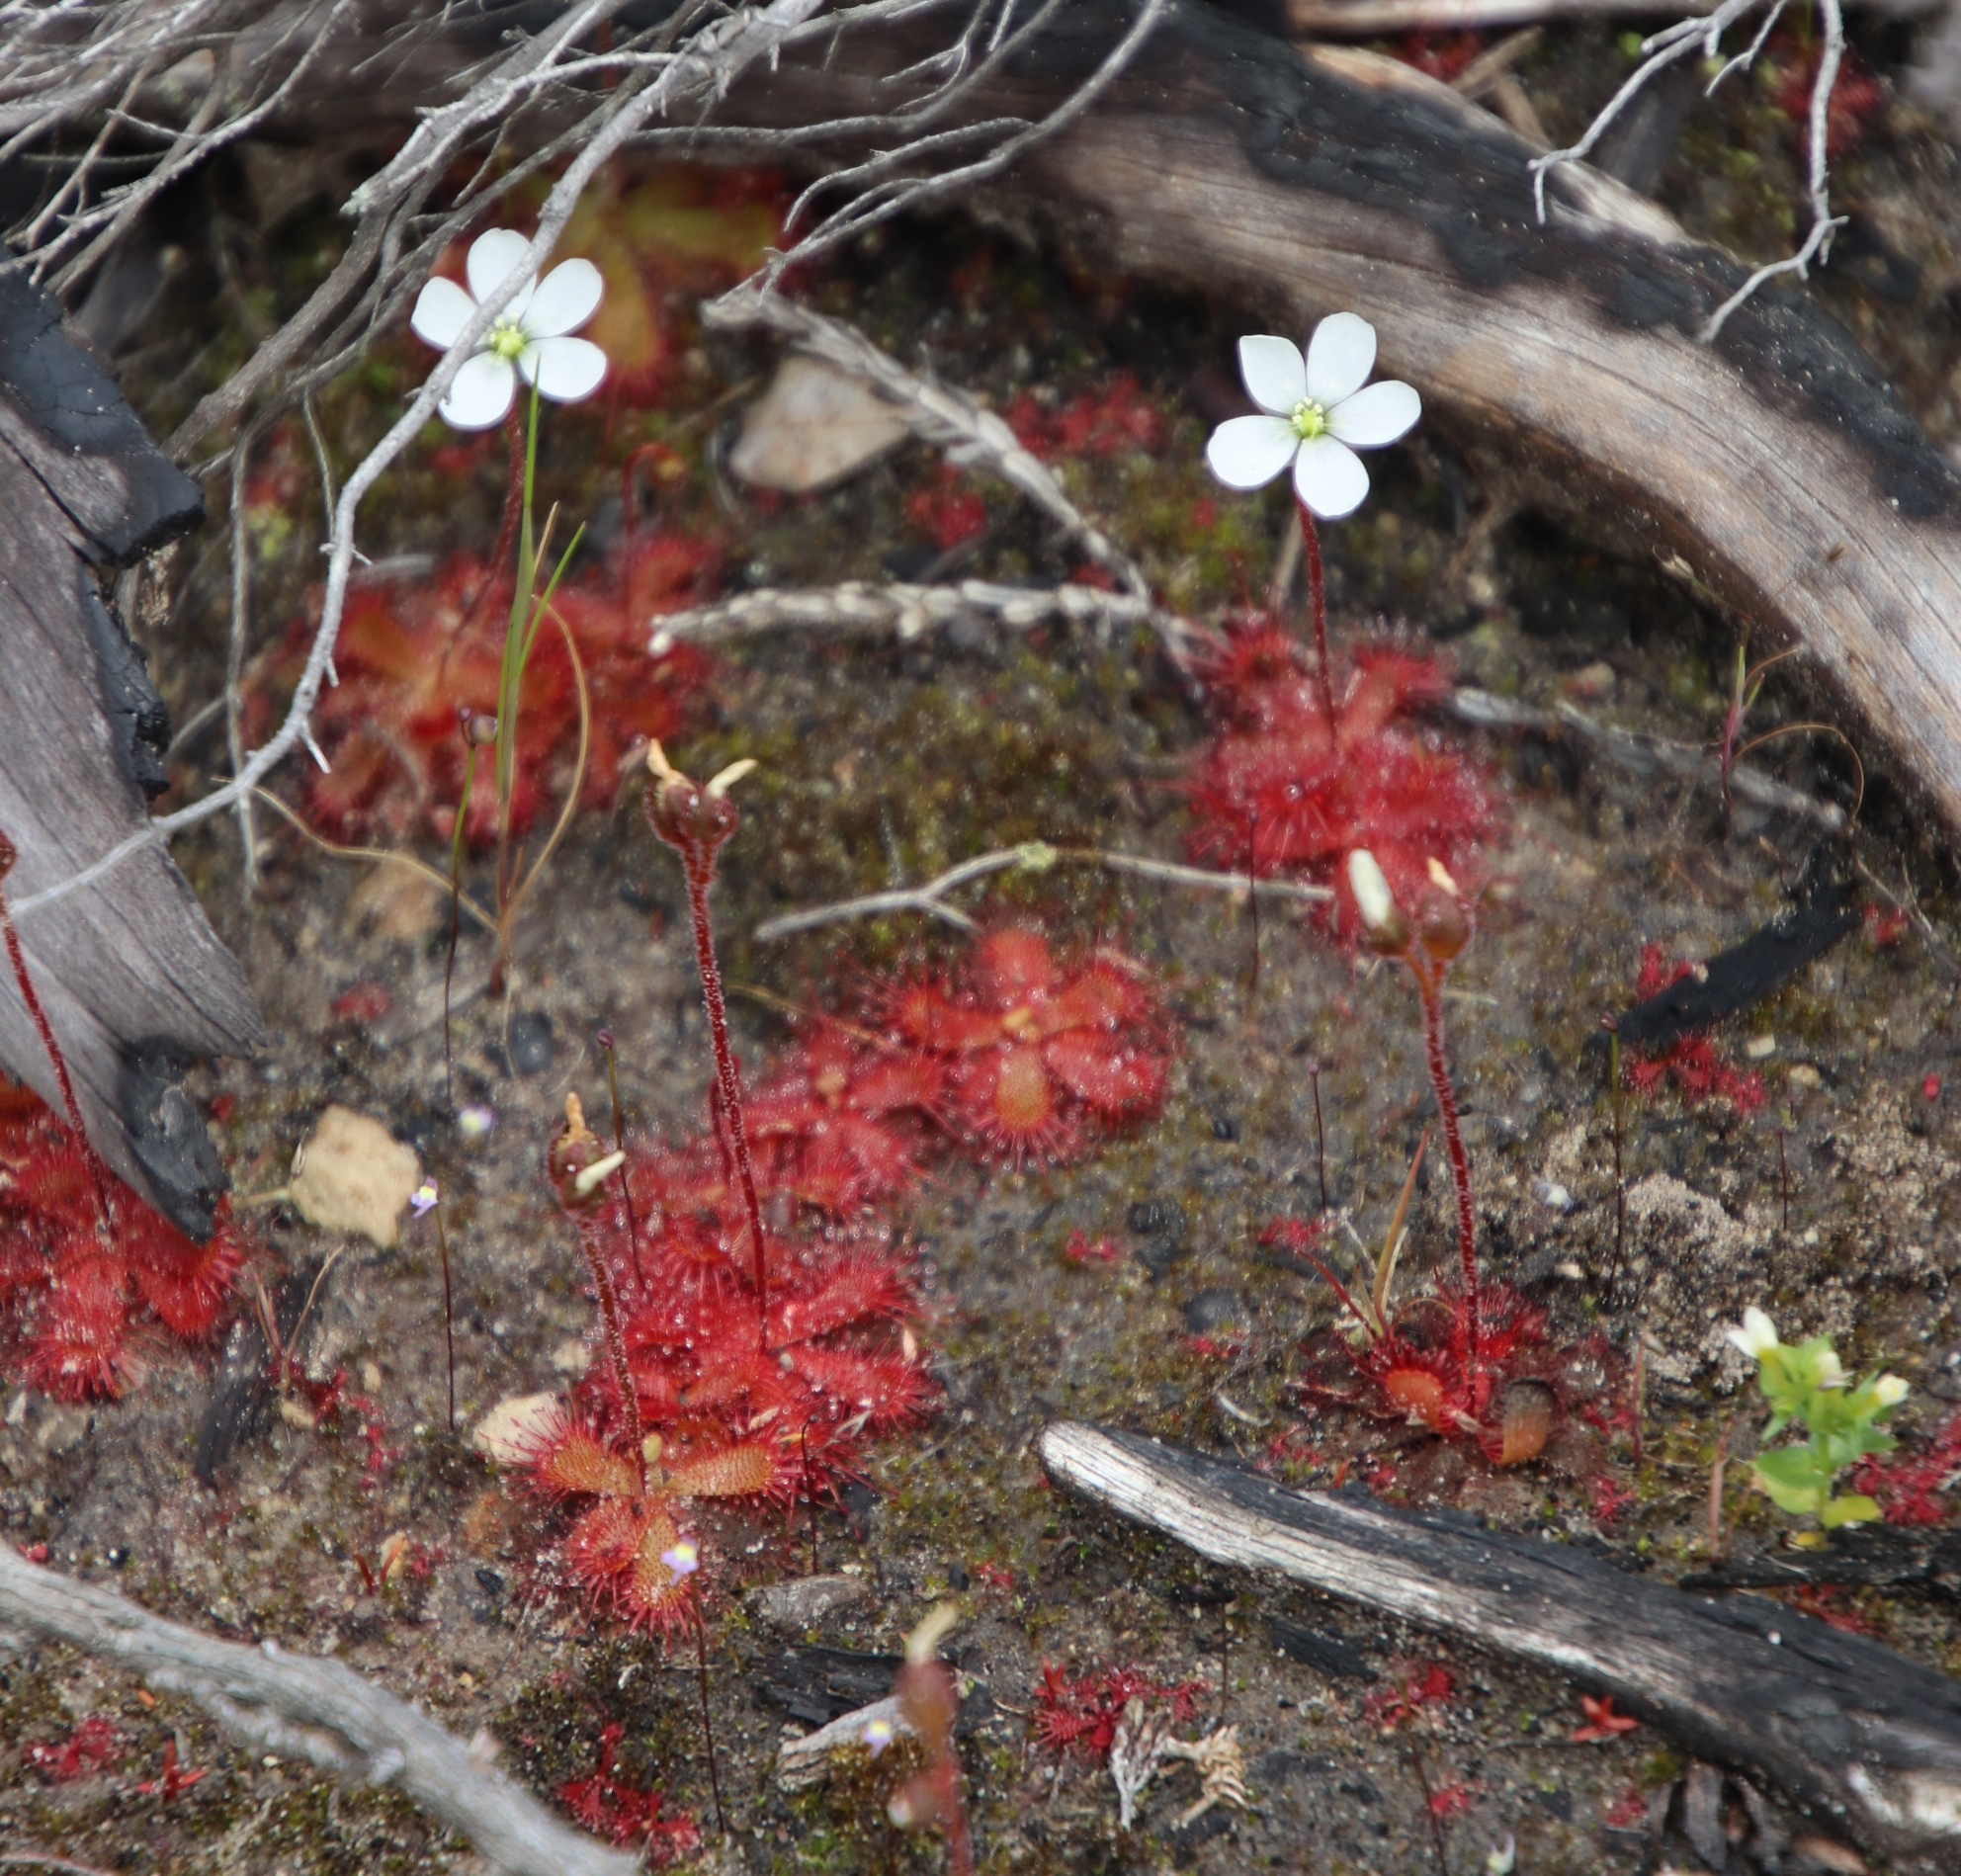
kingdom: Plantae
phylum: Tracheophyta
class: Magnoliopsida
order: Caryophyllales
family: Droseraceae
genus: Drosera
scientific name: Drosera trinervia
